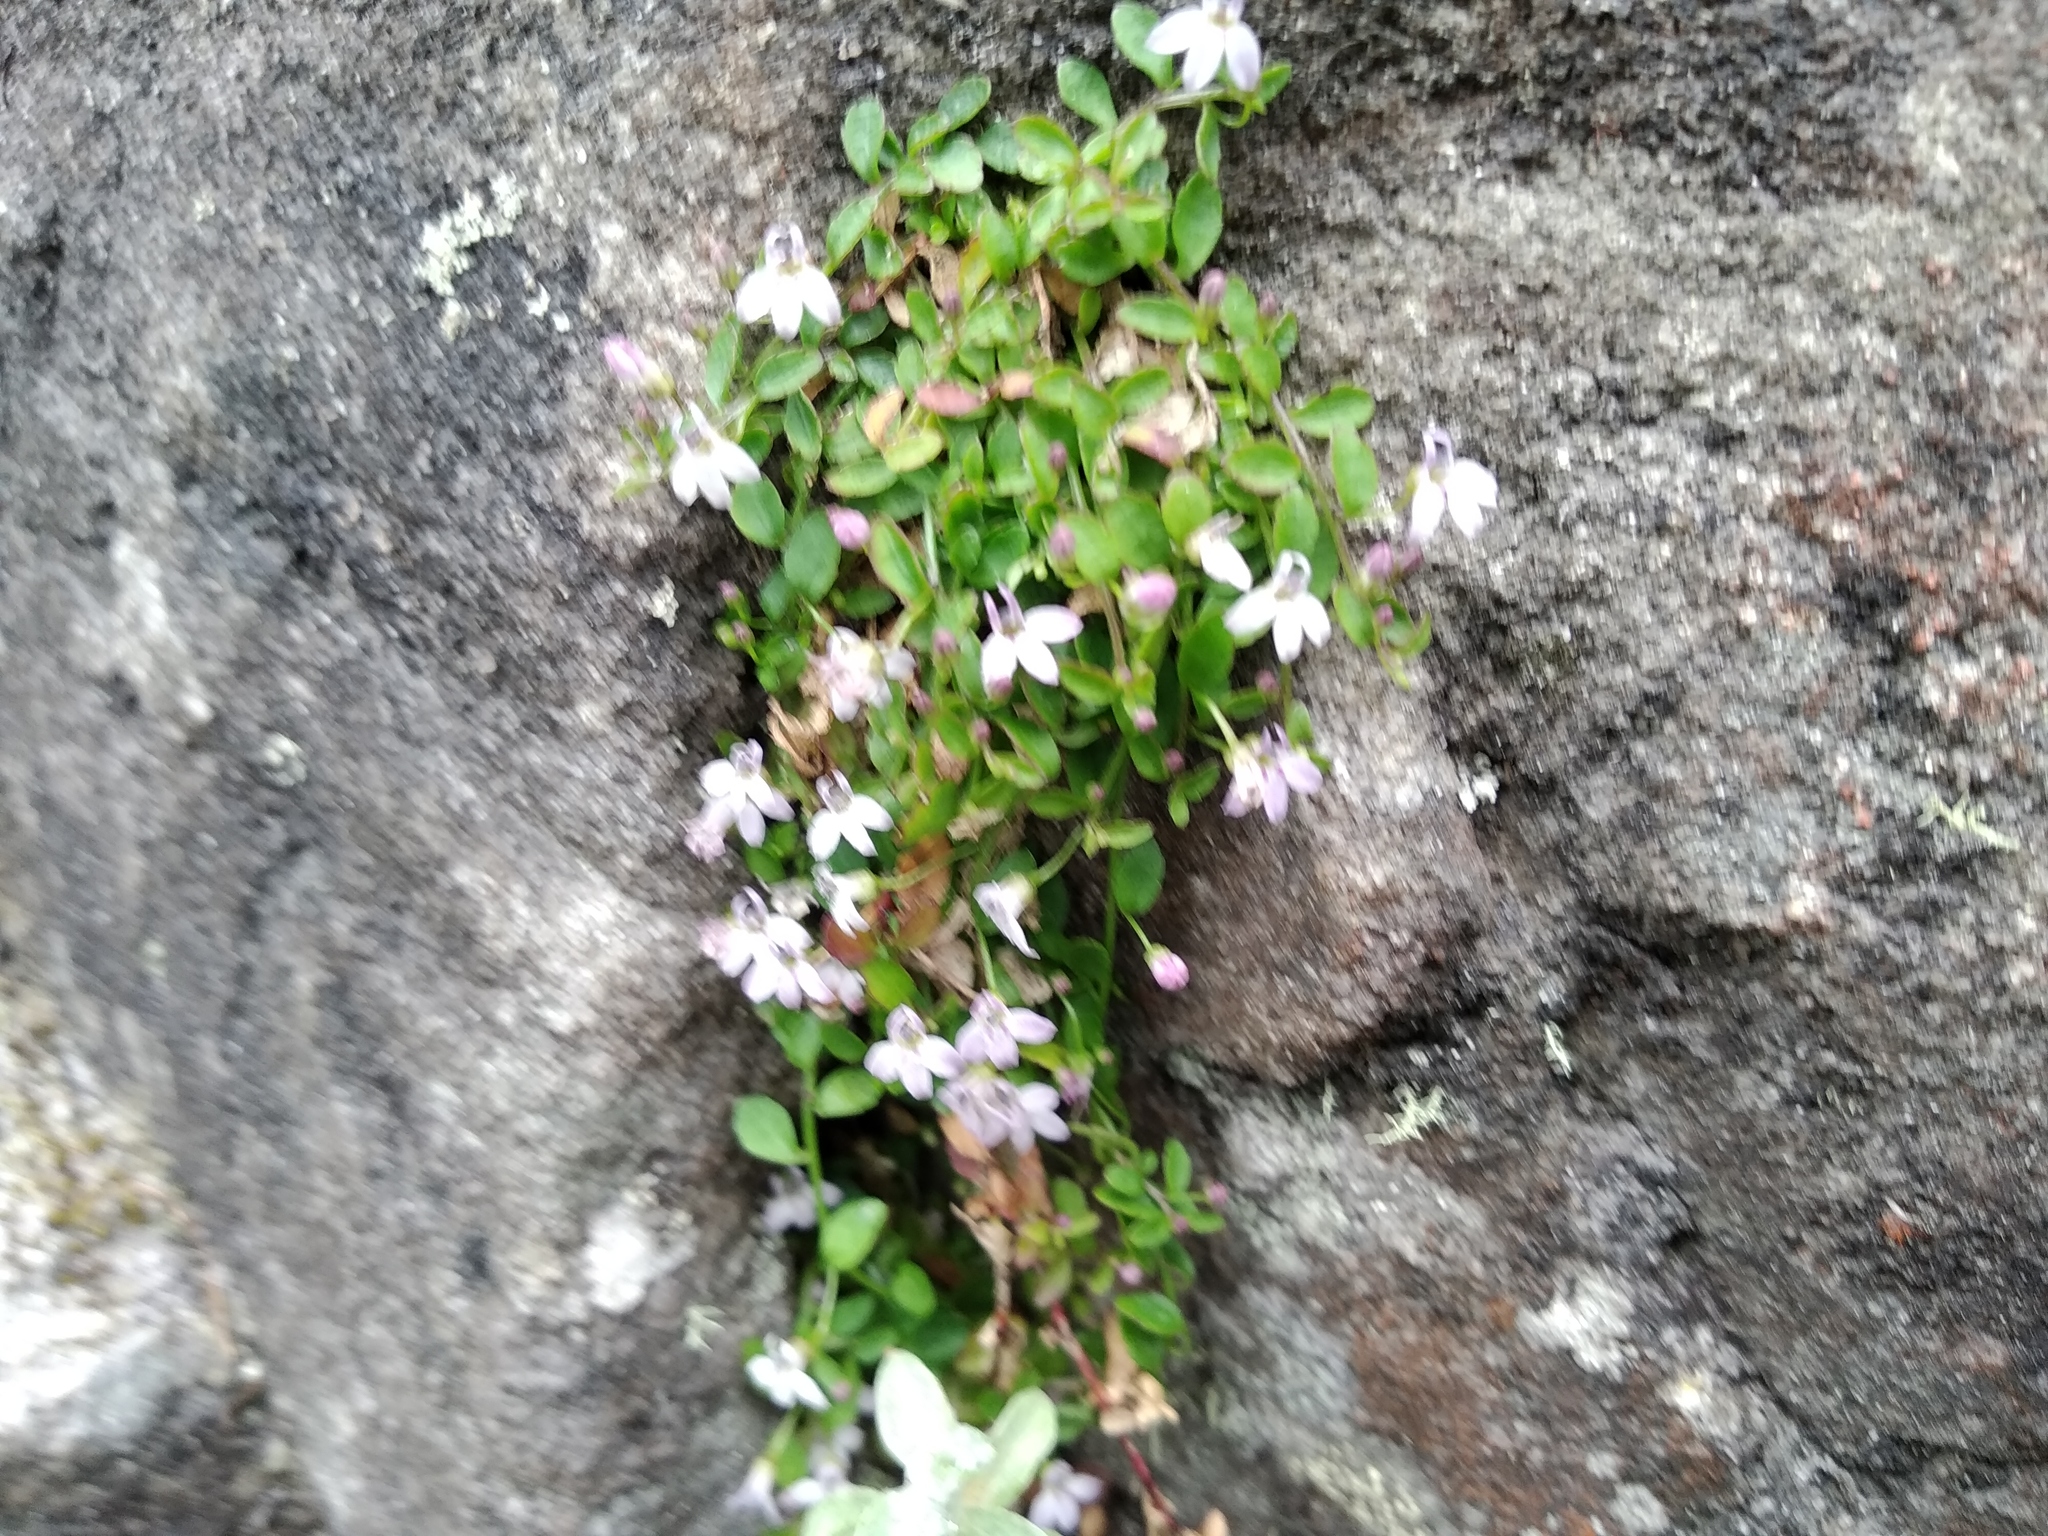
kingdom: Plantae
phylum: Tracheophyta
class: Magnoliopsida
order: Asterales
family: Campanulaceae
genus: Unigenes
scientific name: Unigenes humifusa
